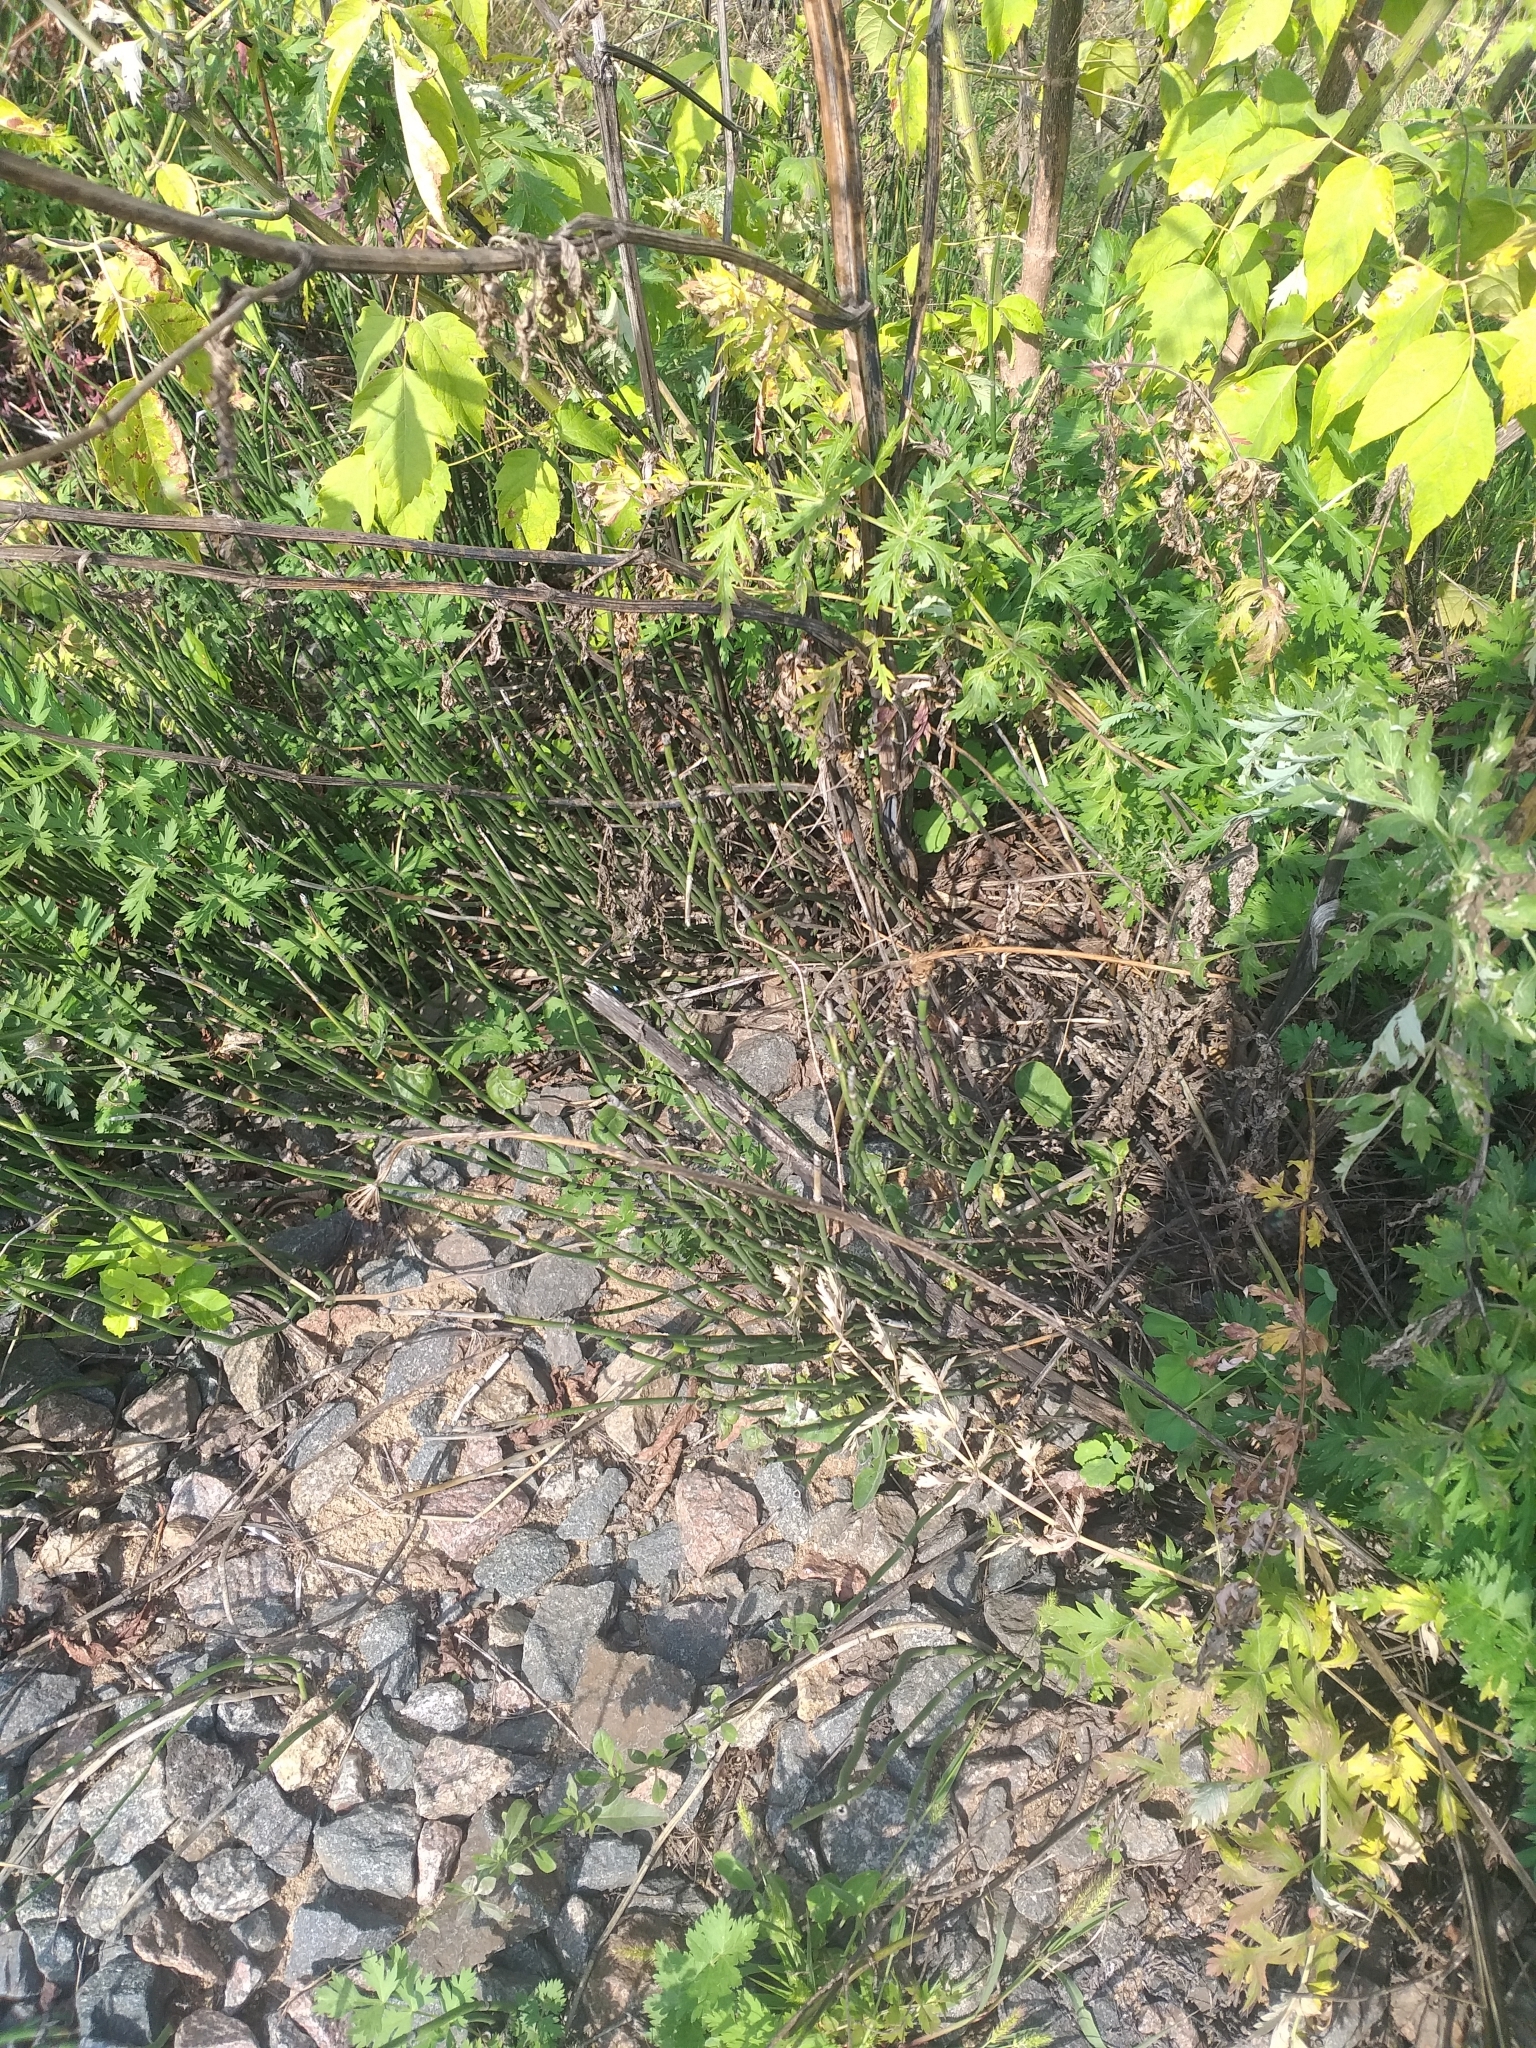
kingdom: Plantae
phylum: Tracheophyta
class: Polypodiopsida
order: Equisetales
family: Equisetaceae
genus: Equisetum
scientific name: Equisetum hyemale
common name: Rough horsetail
